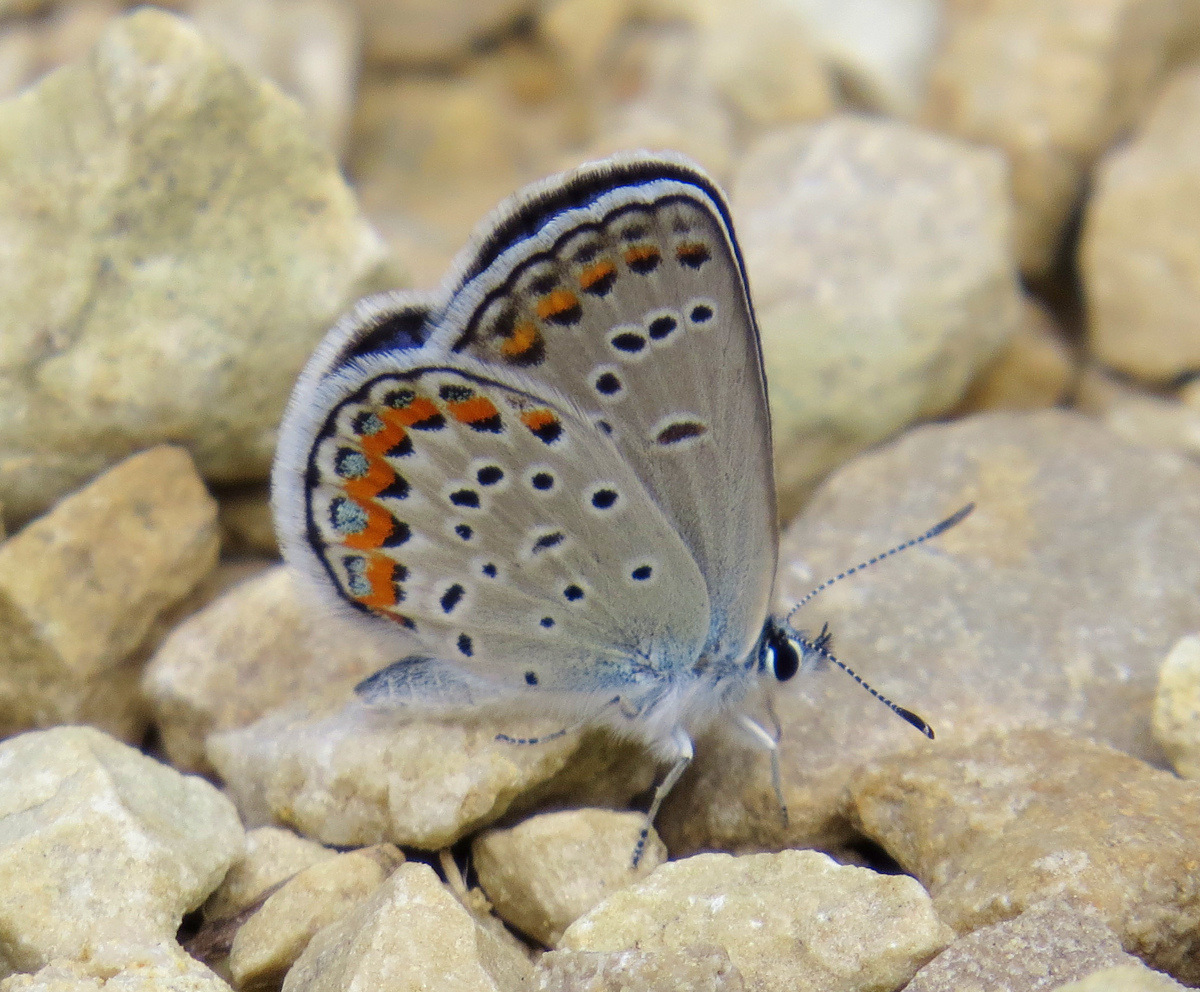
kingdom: Animalia
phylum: Arthropoda
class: Insecta
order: Lepidoptera
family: Lycaenidae
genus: Plebejus
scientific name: Plebejus samuelis
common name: Karner blue
